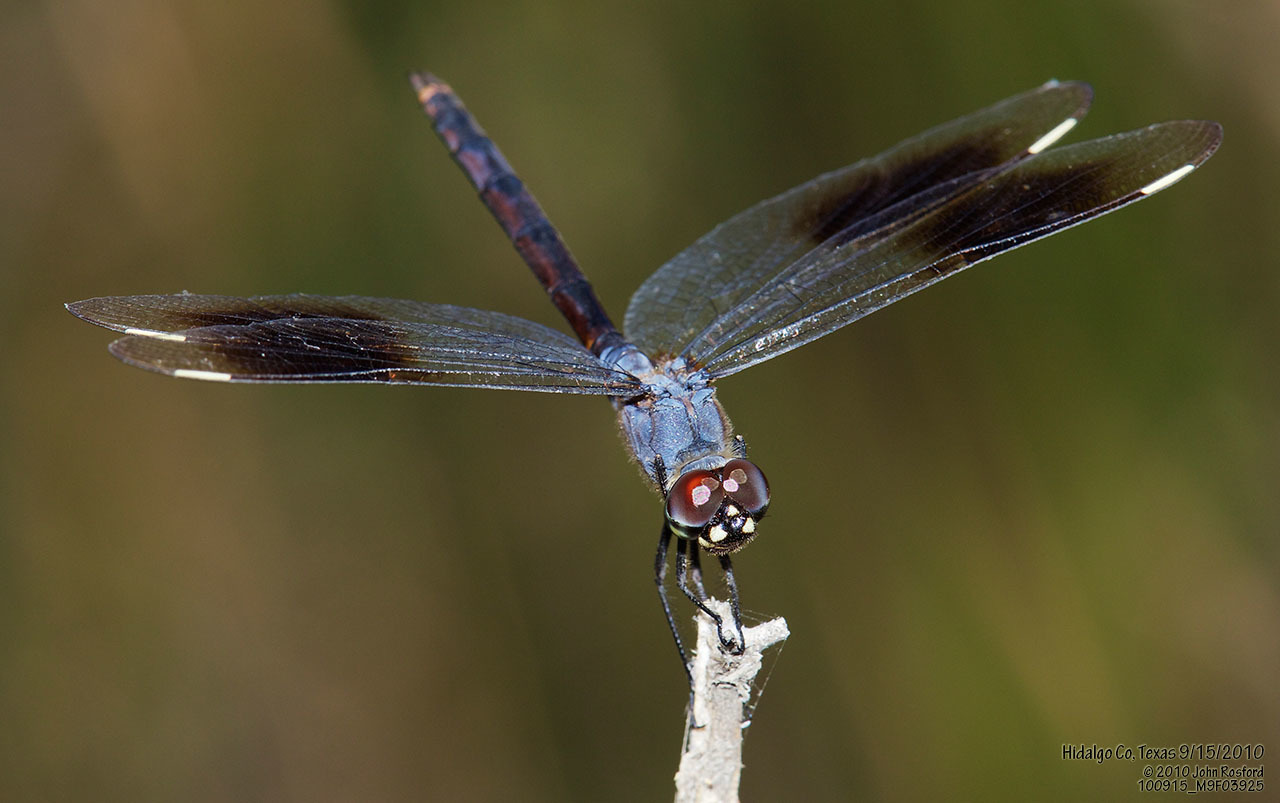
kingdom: Animalia
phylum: Arthropoda
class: Insecta
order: Odonata
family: Libellulidae
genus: Brachymesia
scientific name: Brachymesia gravida
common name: Four-spotted pennant
